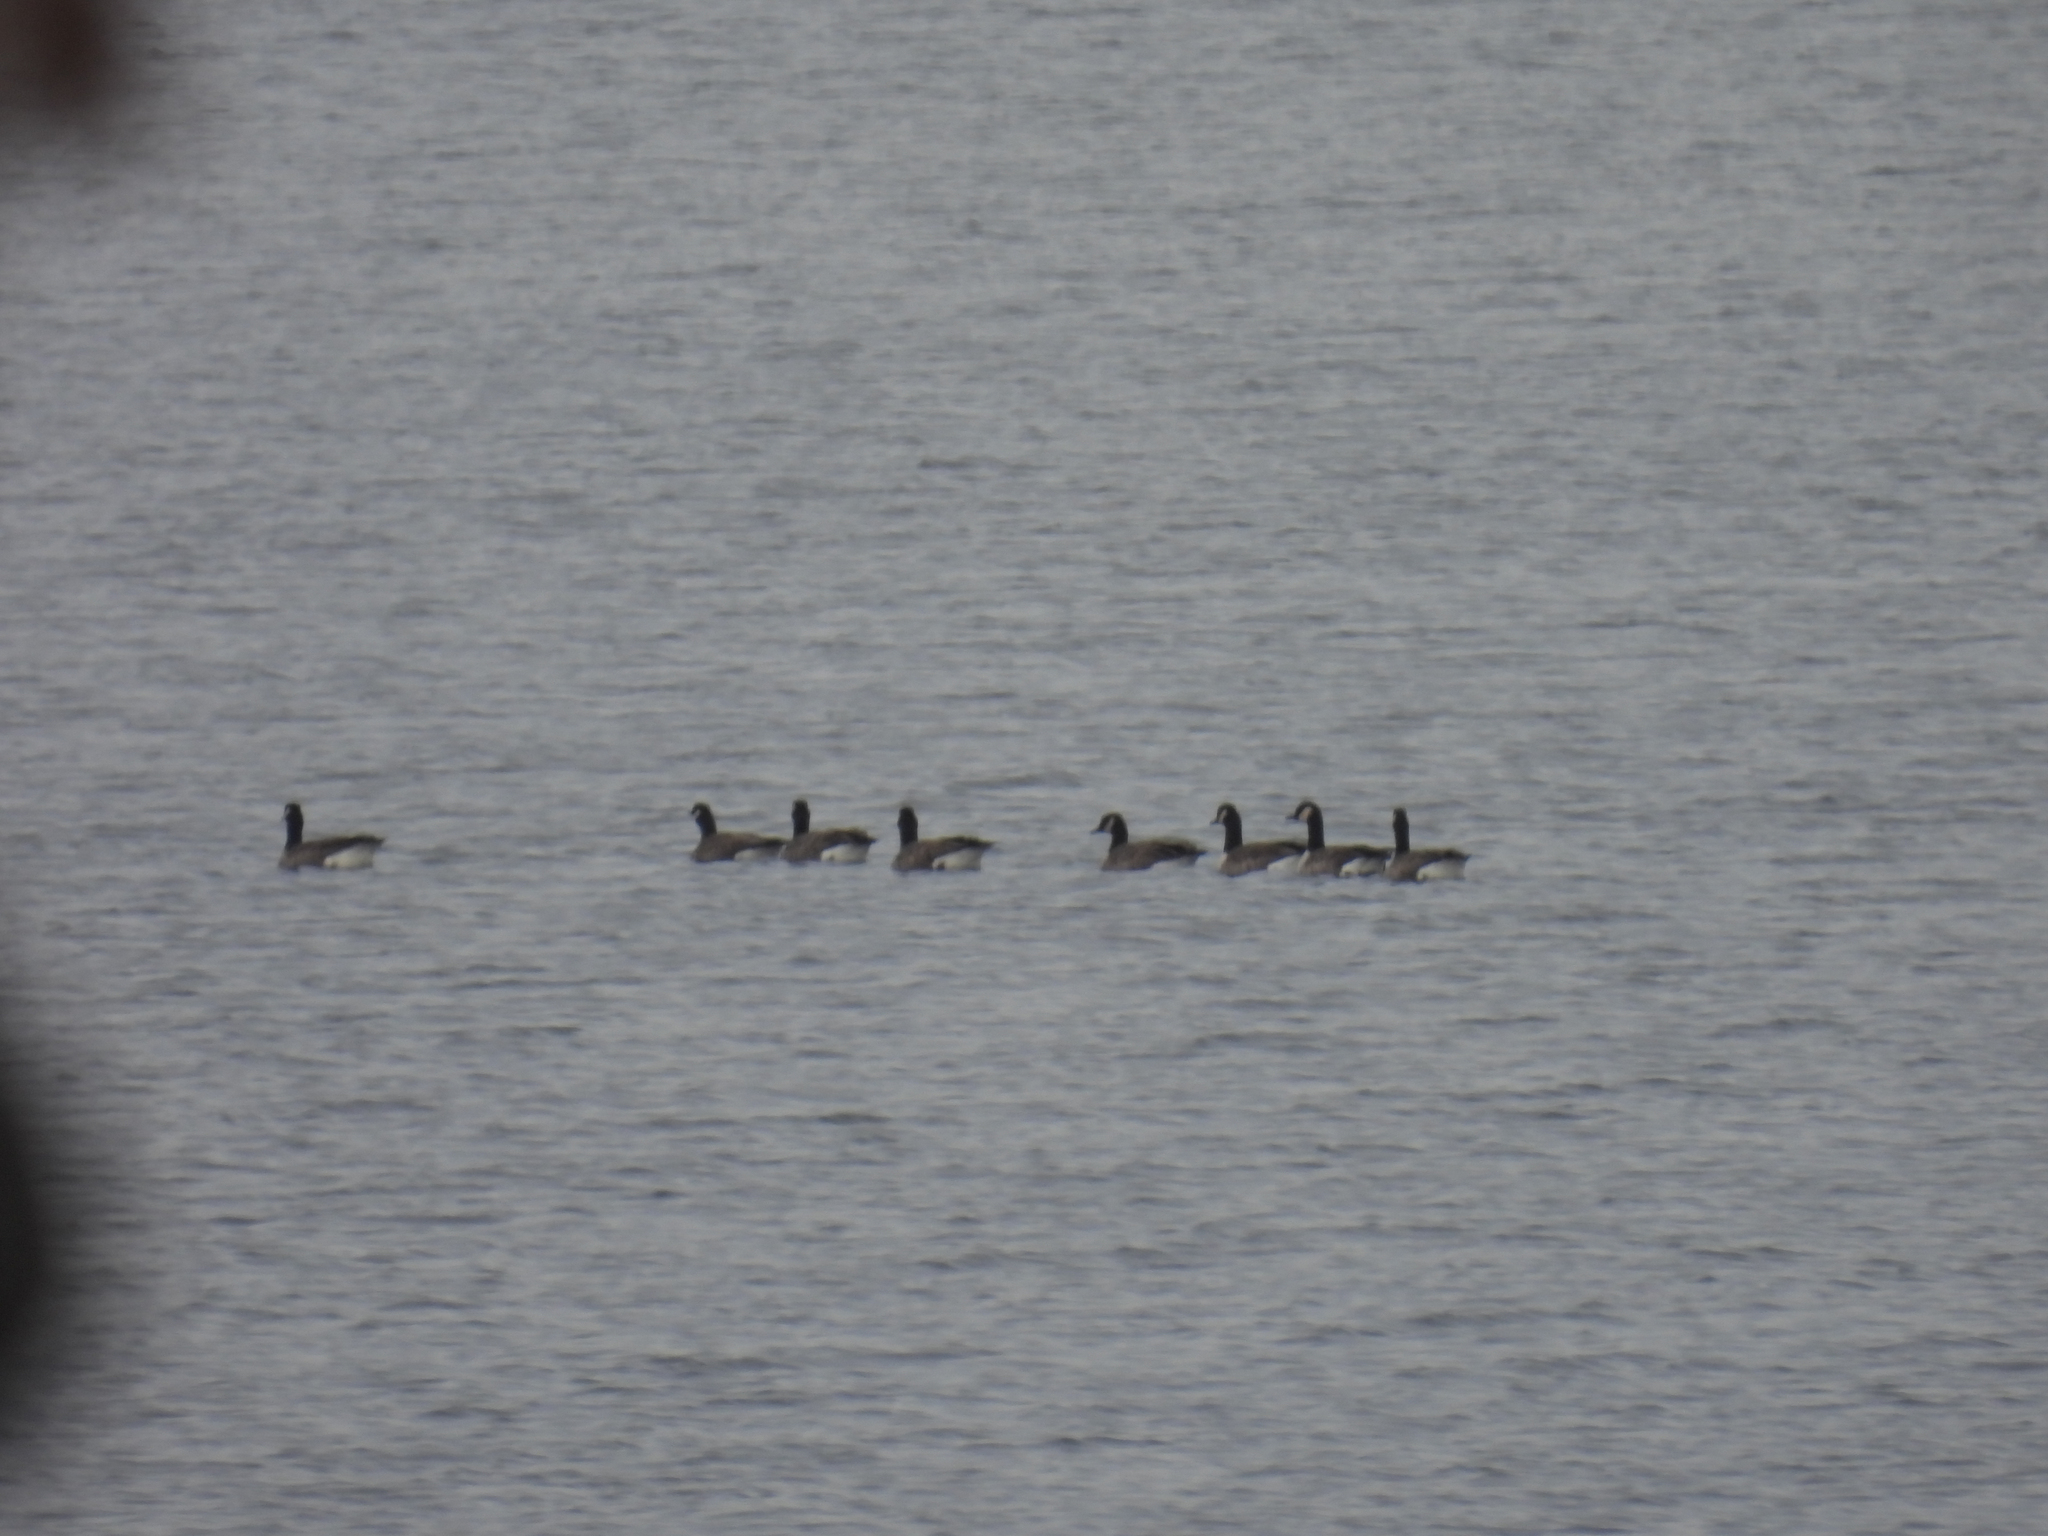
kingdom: Animalia
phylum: Chordata
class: Aves
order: Anseriformes
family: Anatidae
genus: Branta
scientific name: Branta canadensis
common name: Canada goose
